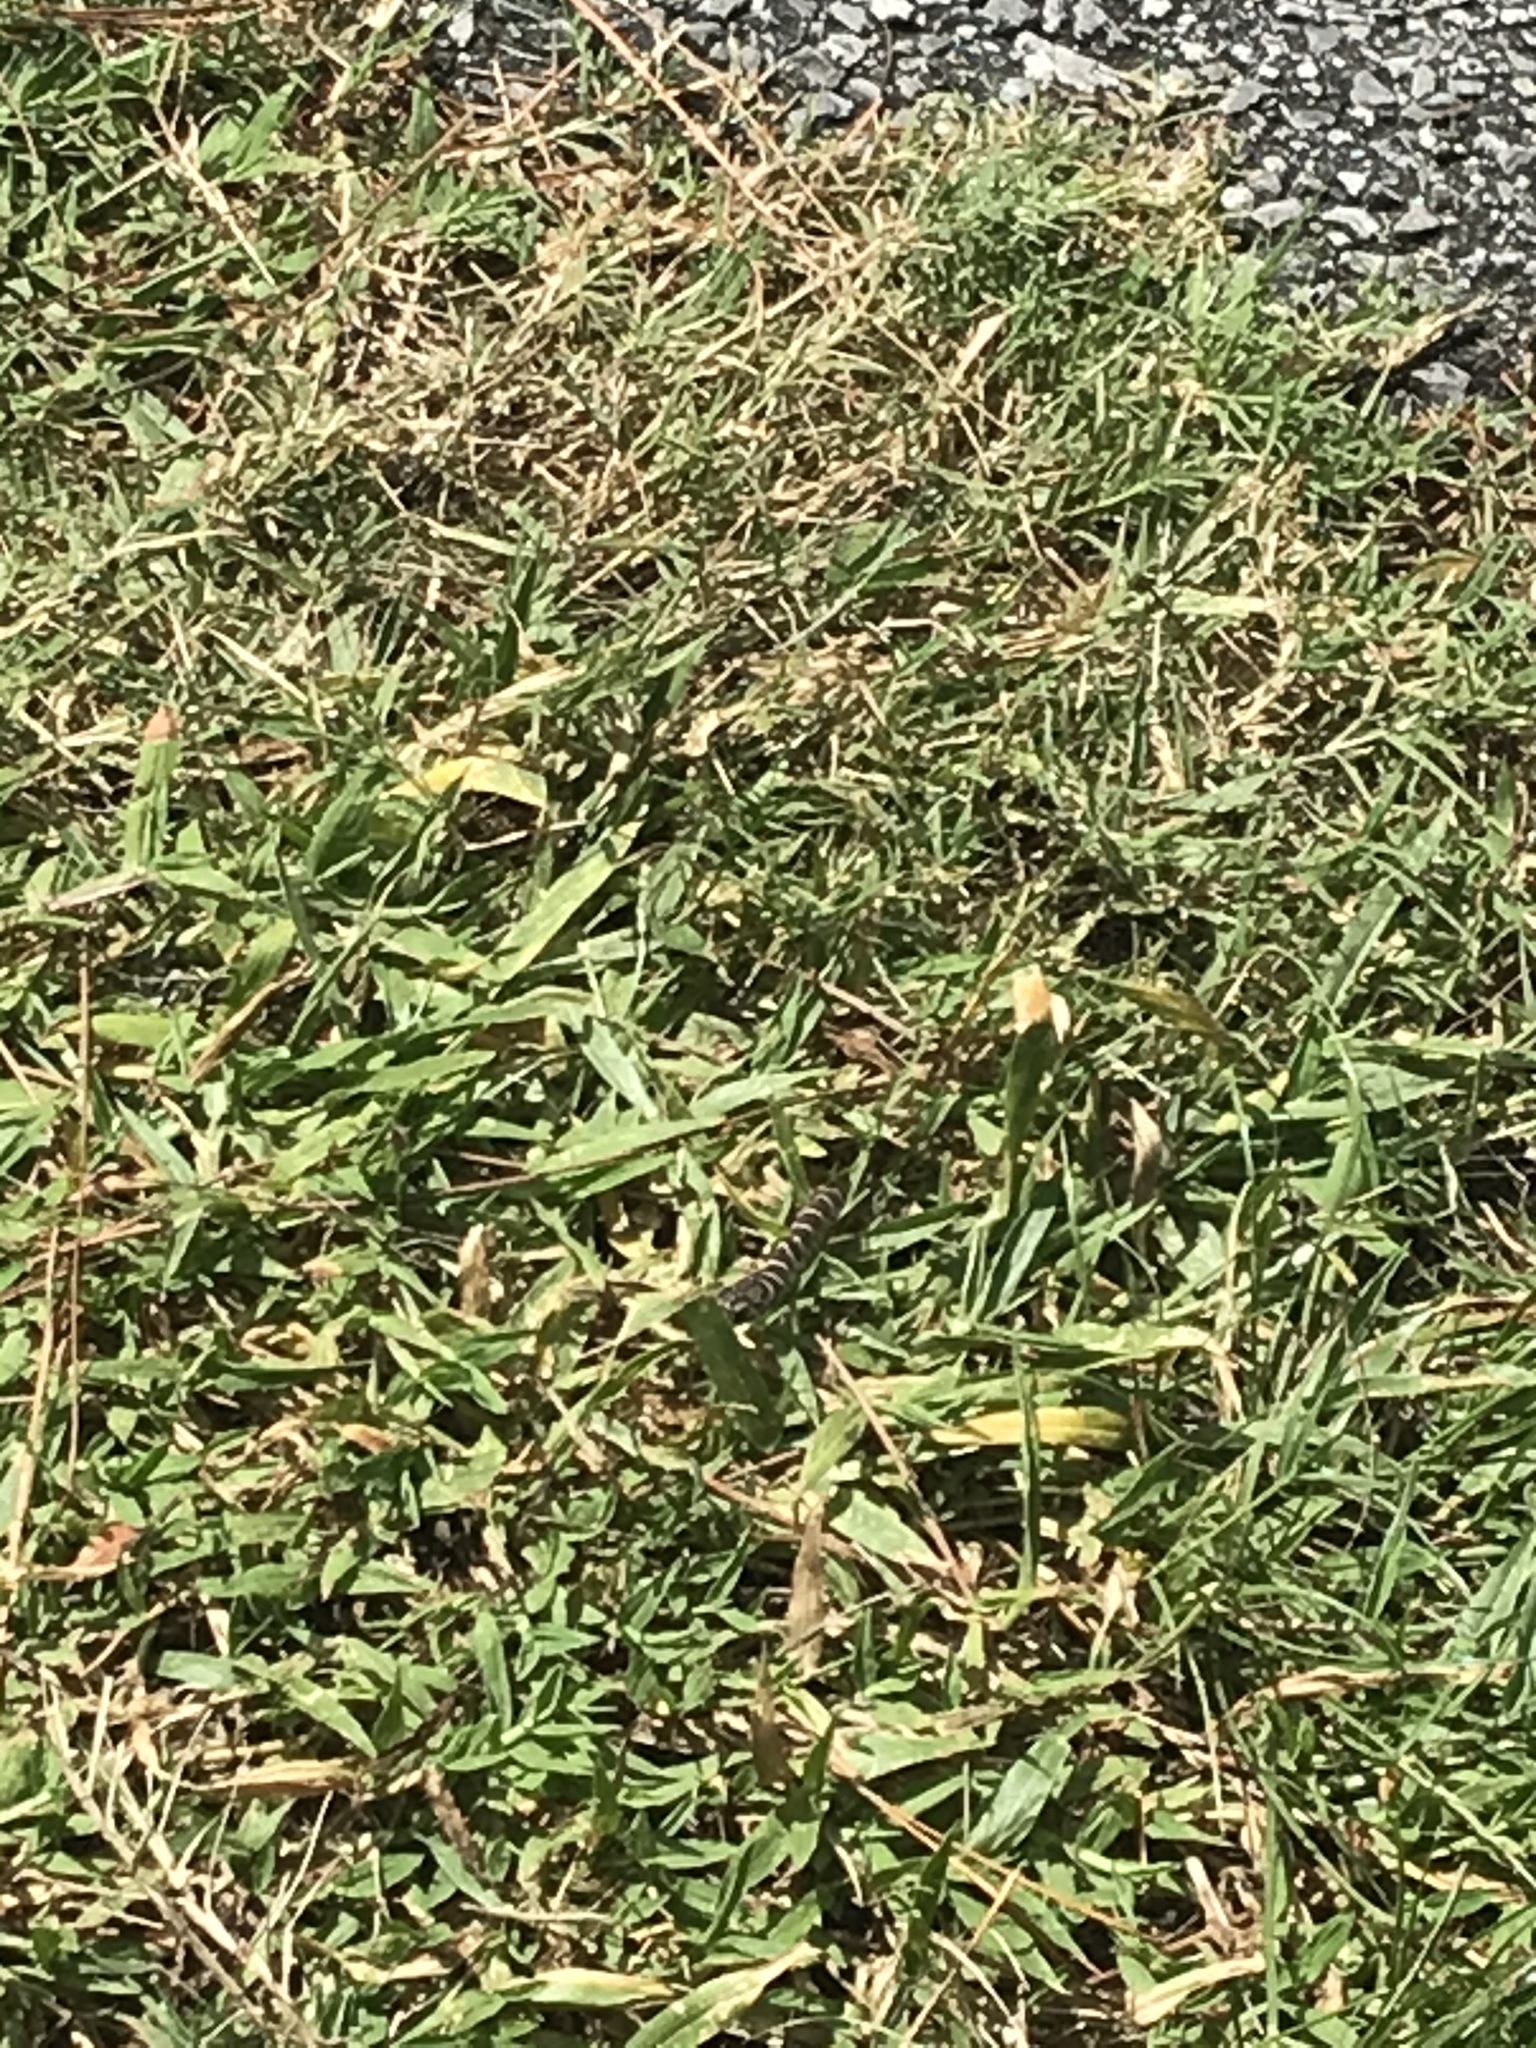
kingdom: Animalia
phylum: Chordata
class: Squamata
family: Colubridae
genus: Coluber
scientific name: Coluber constrictor
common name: Eastern racer
